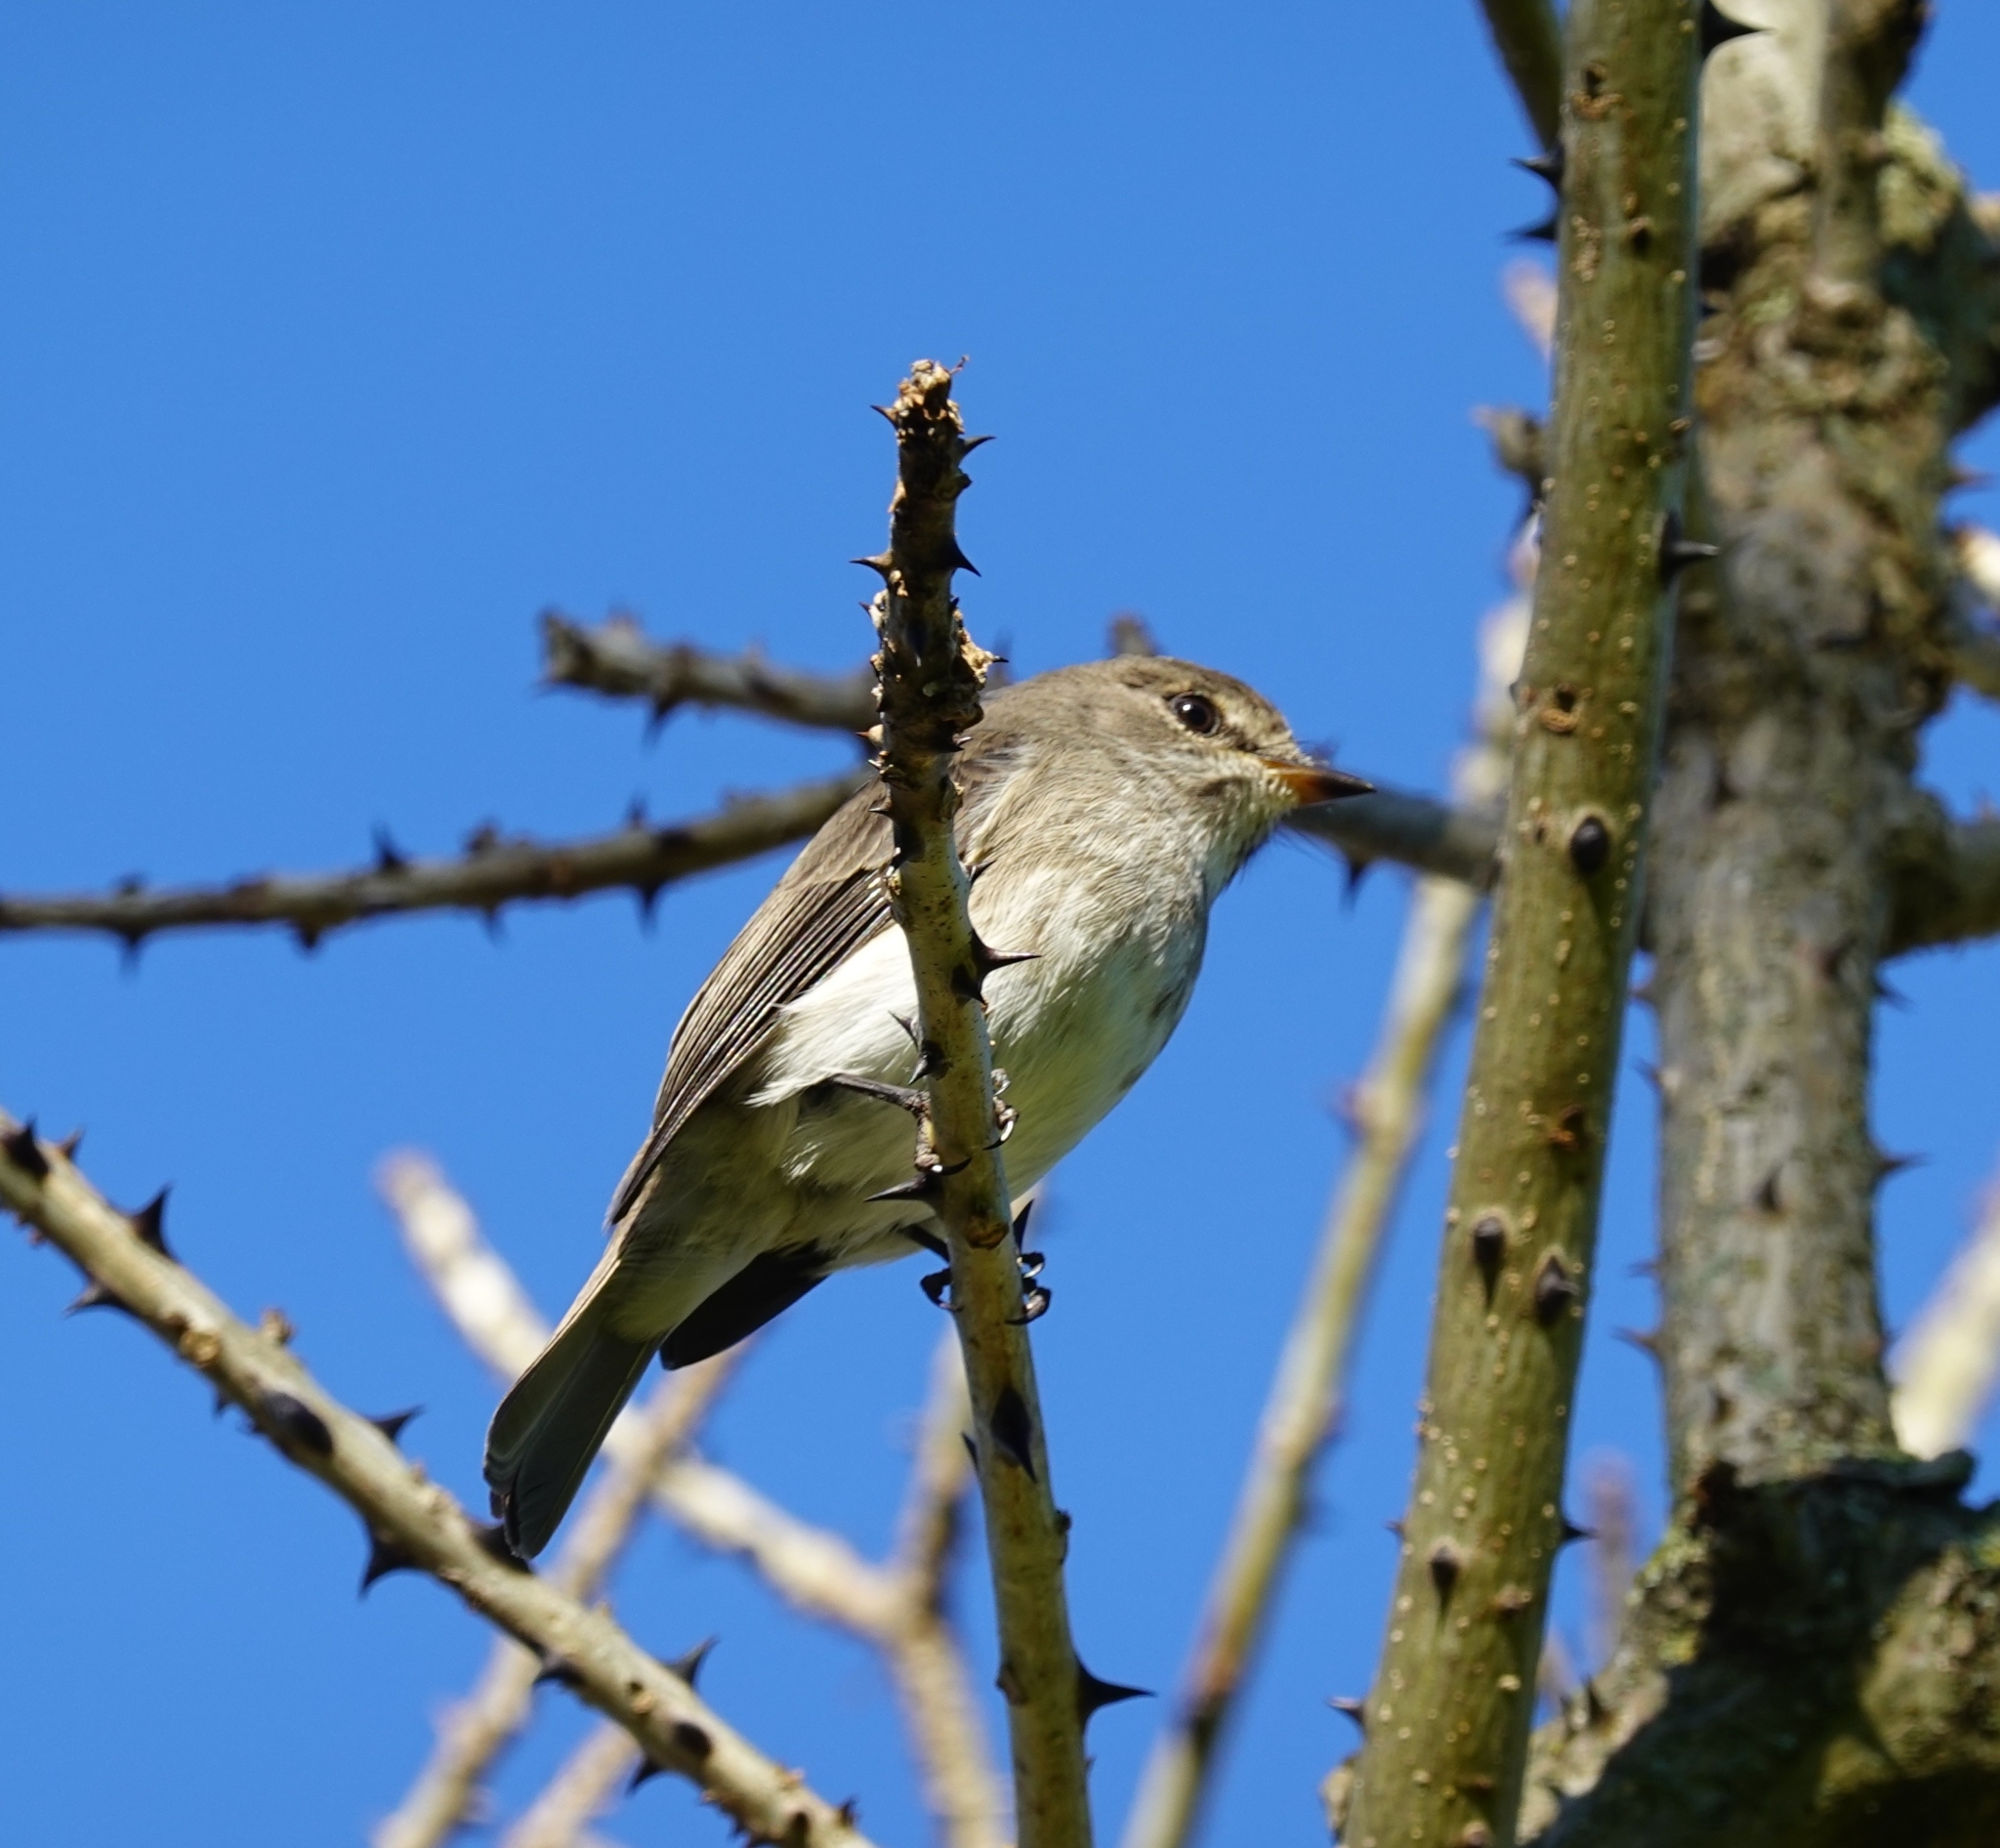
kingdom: Animalia
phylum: Chordata
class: Aves
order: Passeriformes
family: Muscicapidae
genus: Muscicapa
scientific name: Muscicapa adusta
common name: African dusky flycatcher
